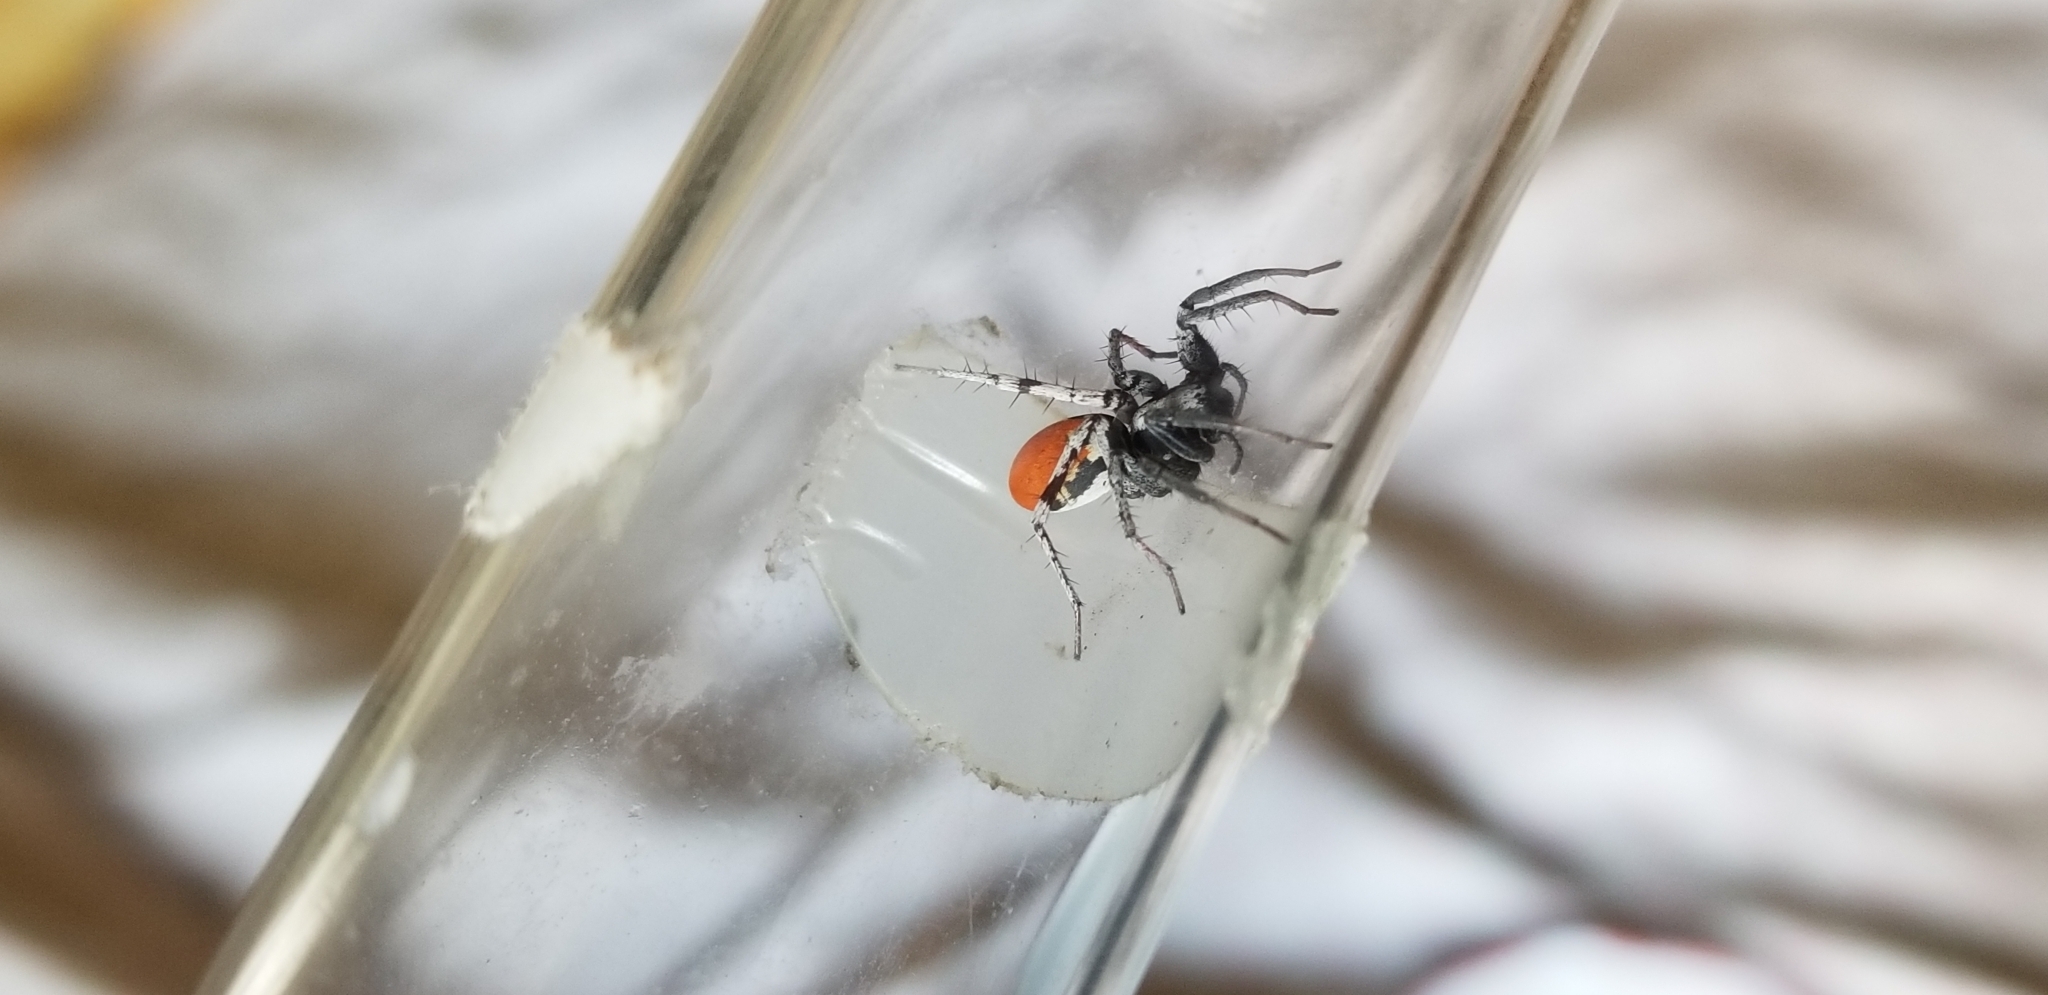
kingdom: Animalia
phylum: Arthropoda
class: Arachnida
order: Araneae
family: Corinnidae
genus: Castianeira
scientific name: Castianeira occidens
